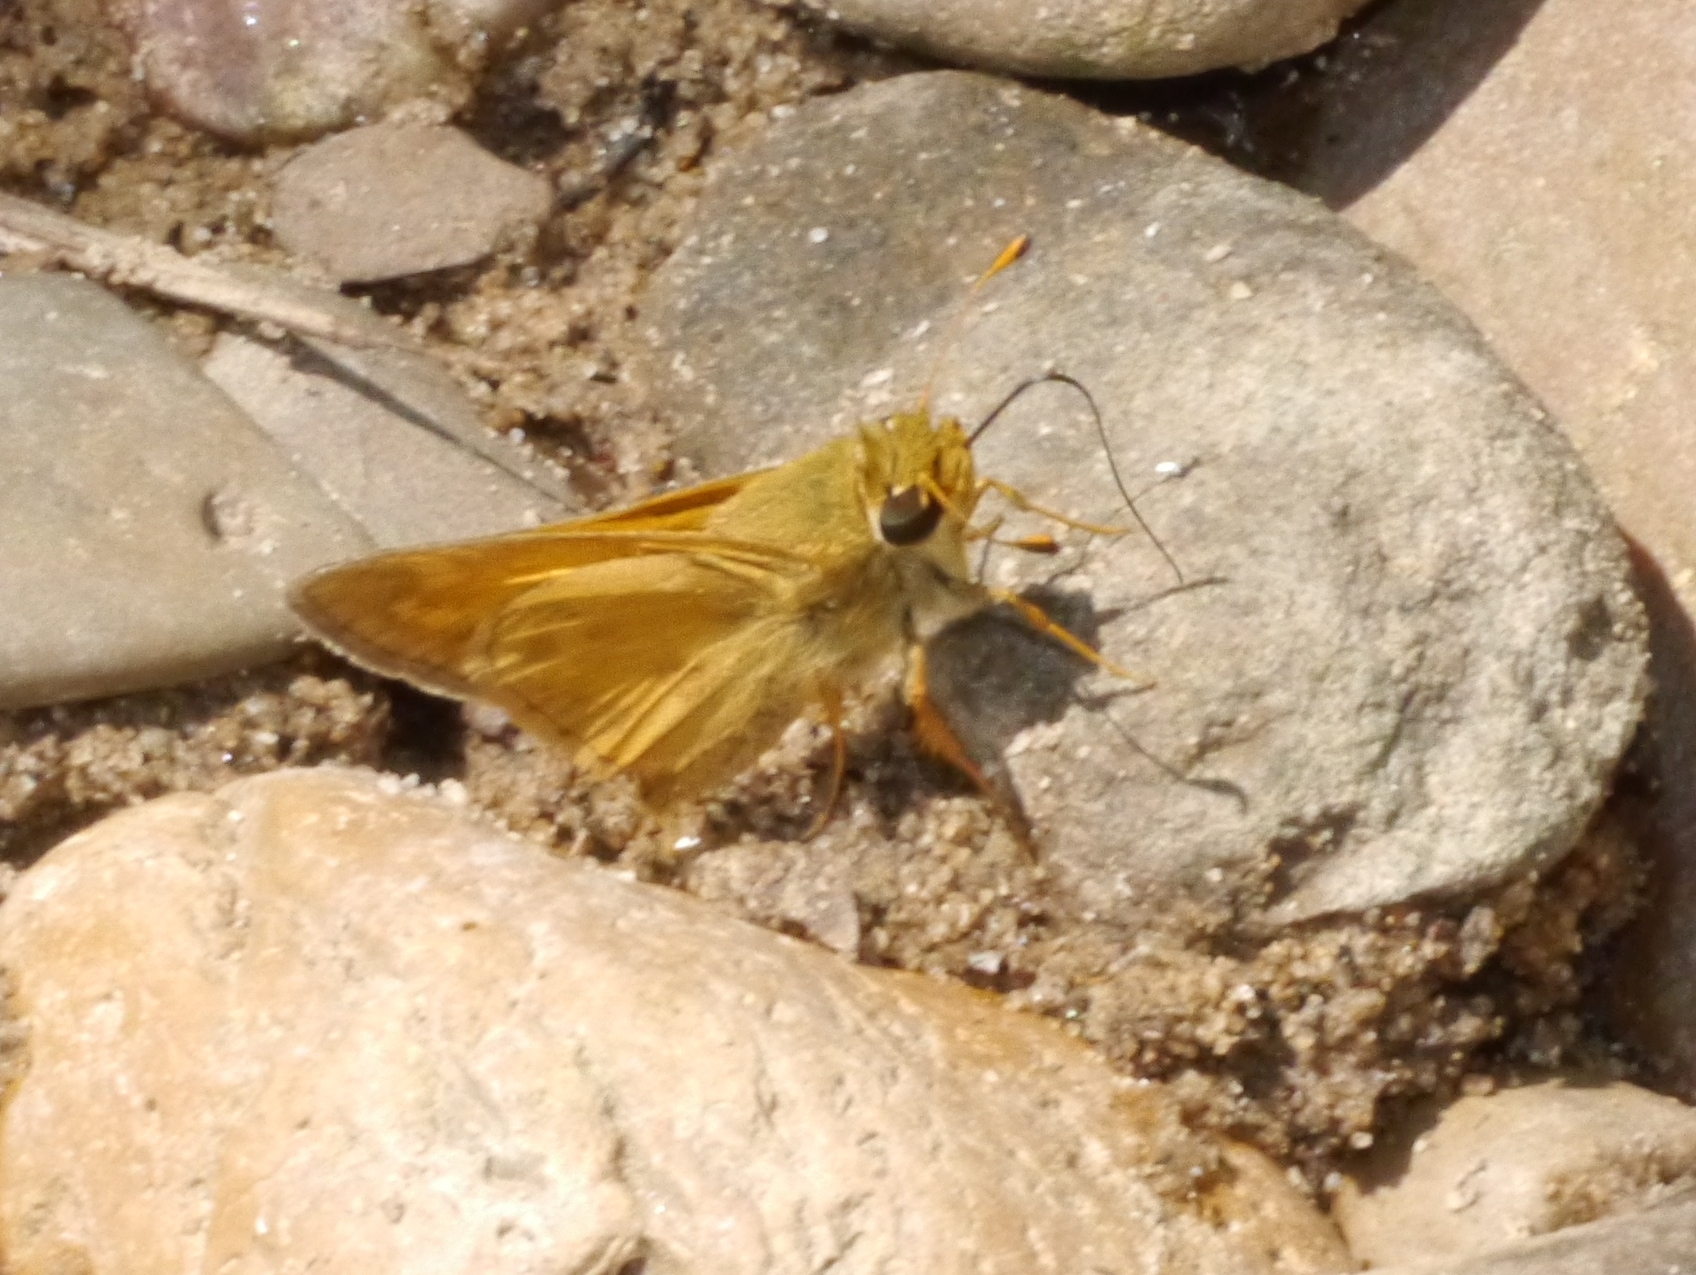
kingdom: Animalia
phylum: Arthropoda
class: Insecta
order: Lepidoptera
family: Hesperiidae
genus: Atalopedes
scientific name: Atalopedes
